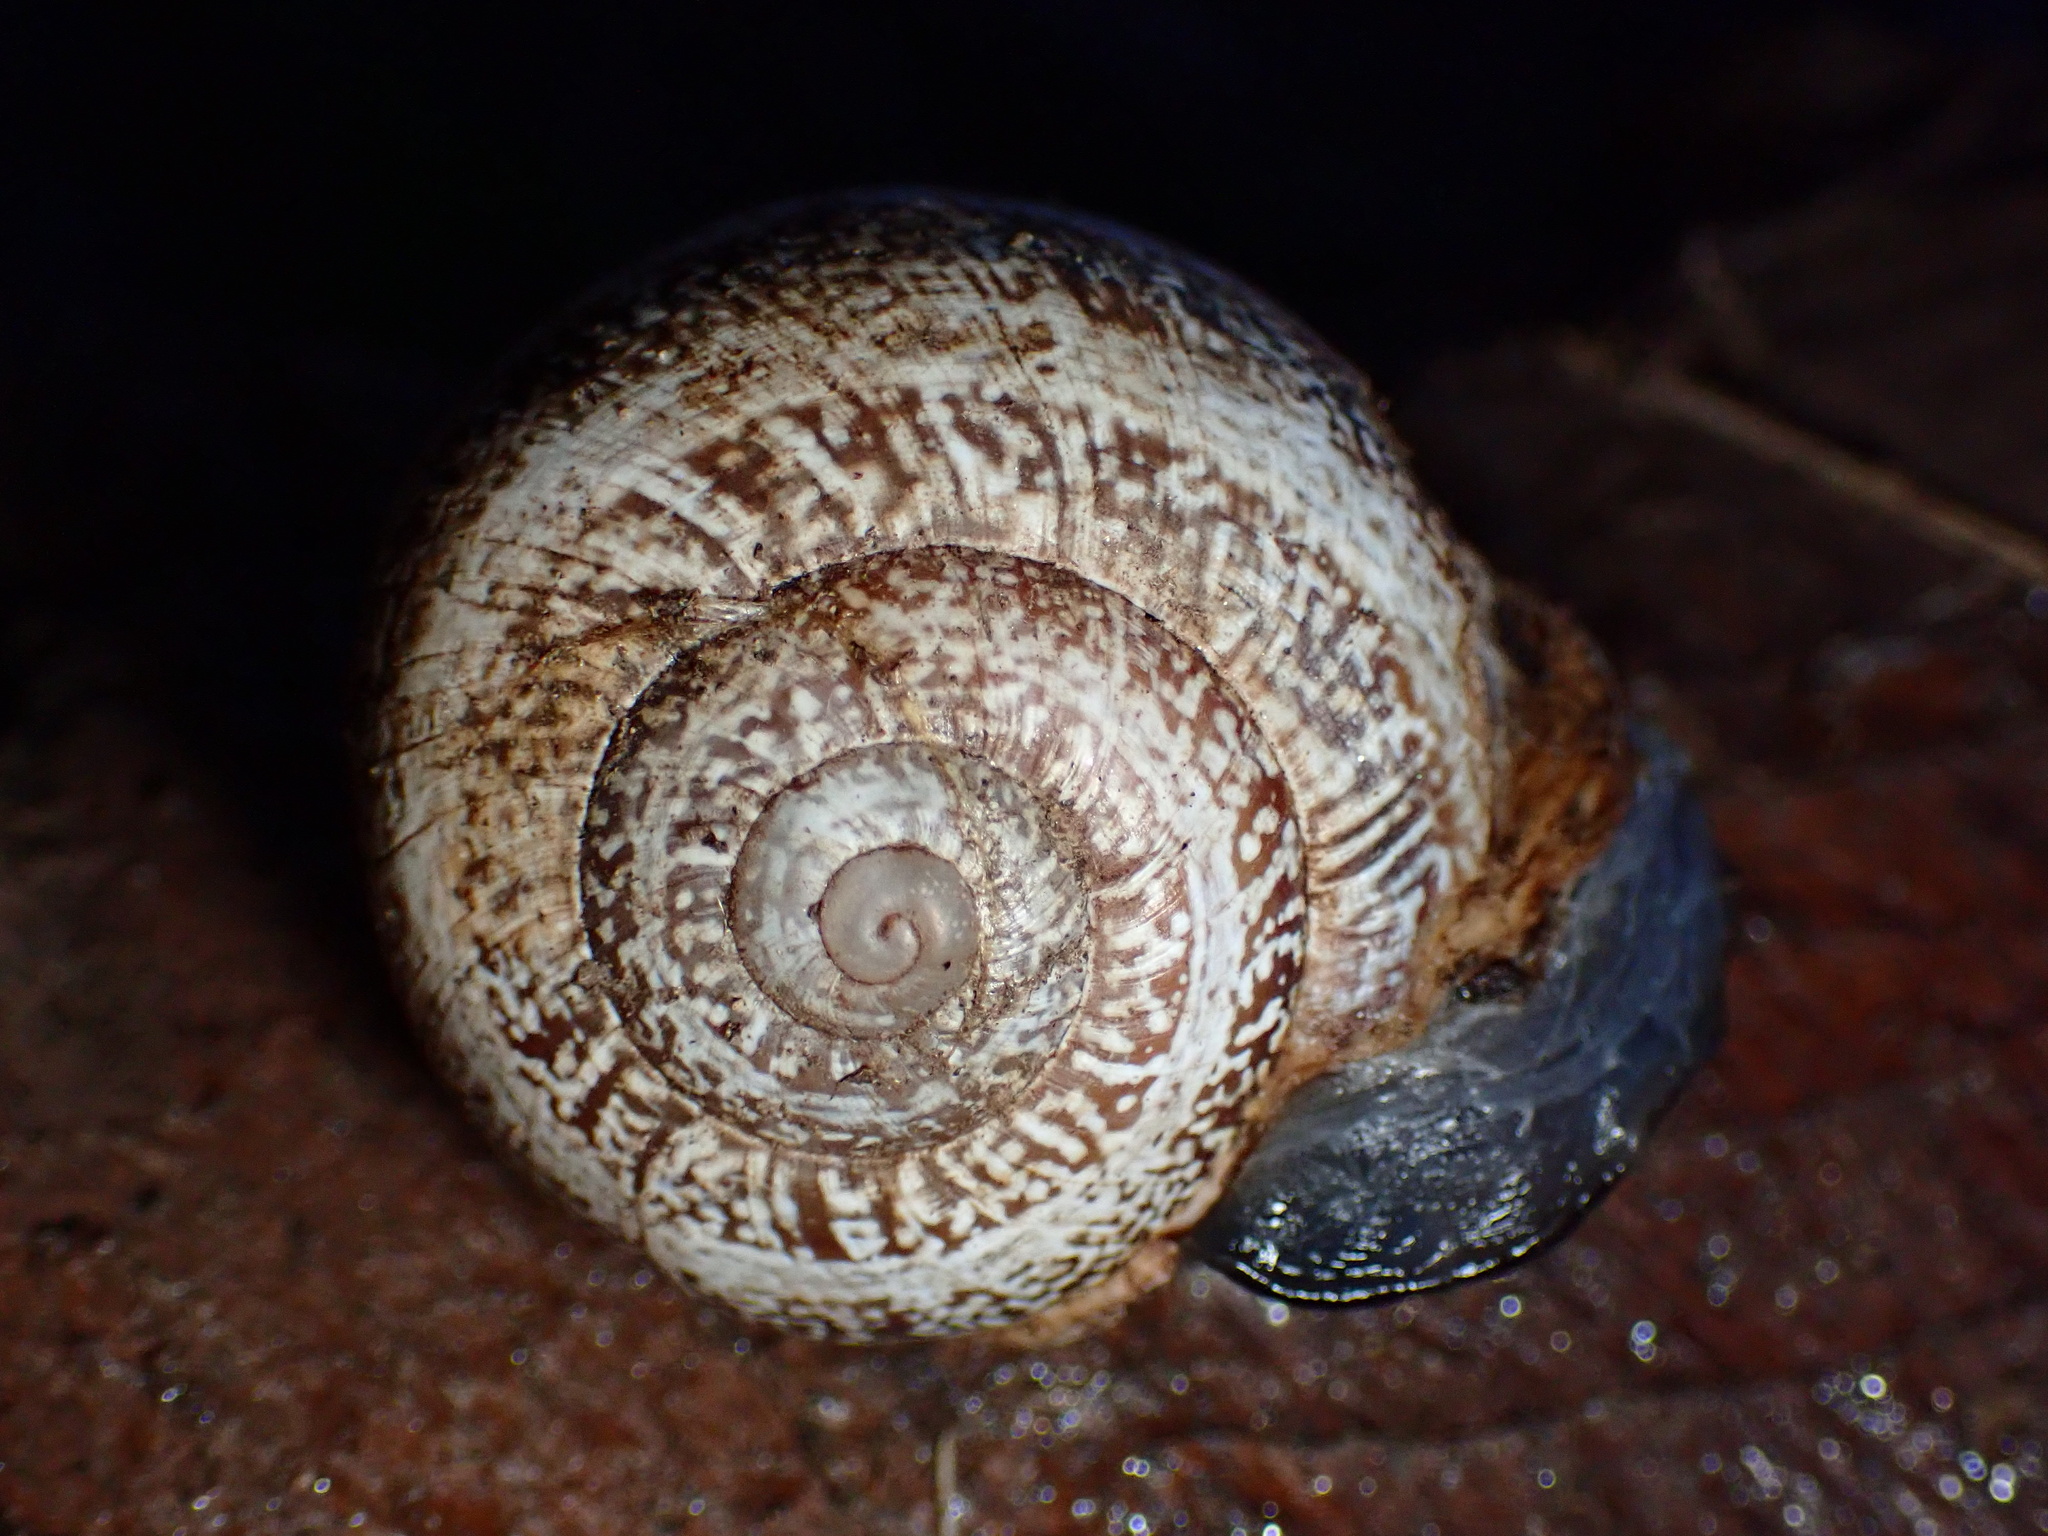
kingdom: Animalia
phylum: Mollusca
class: Gastropoda
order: Stylommatophora
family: Helicidae
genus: Otala
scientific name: Otala lactea
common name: Milk snail
